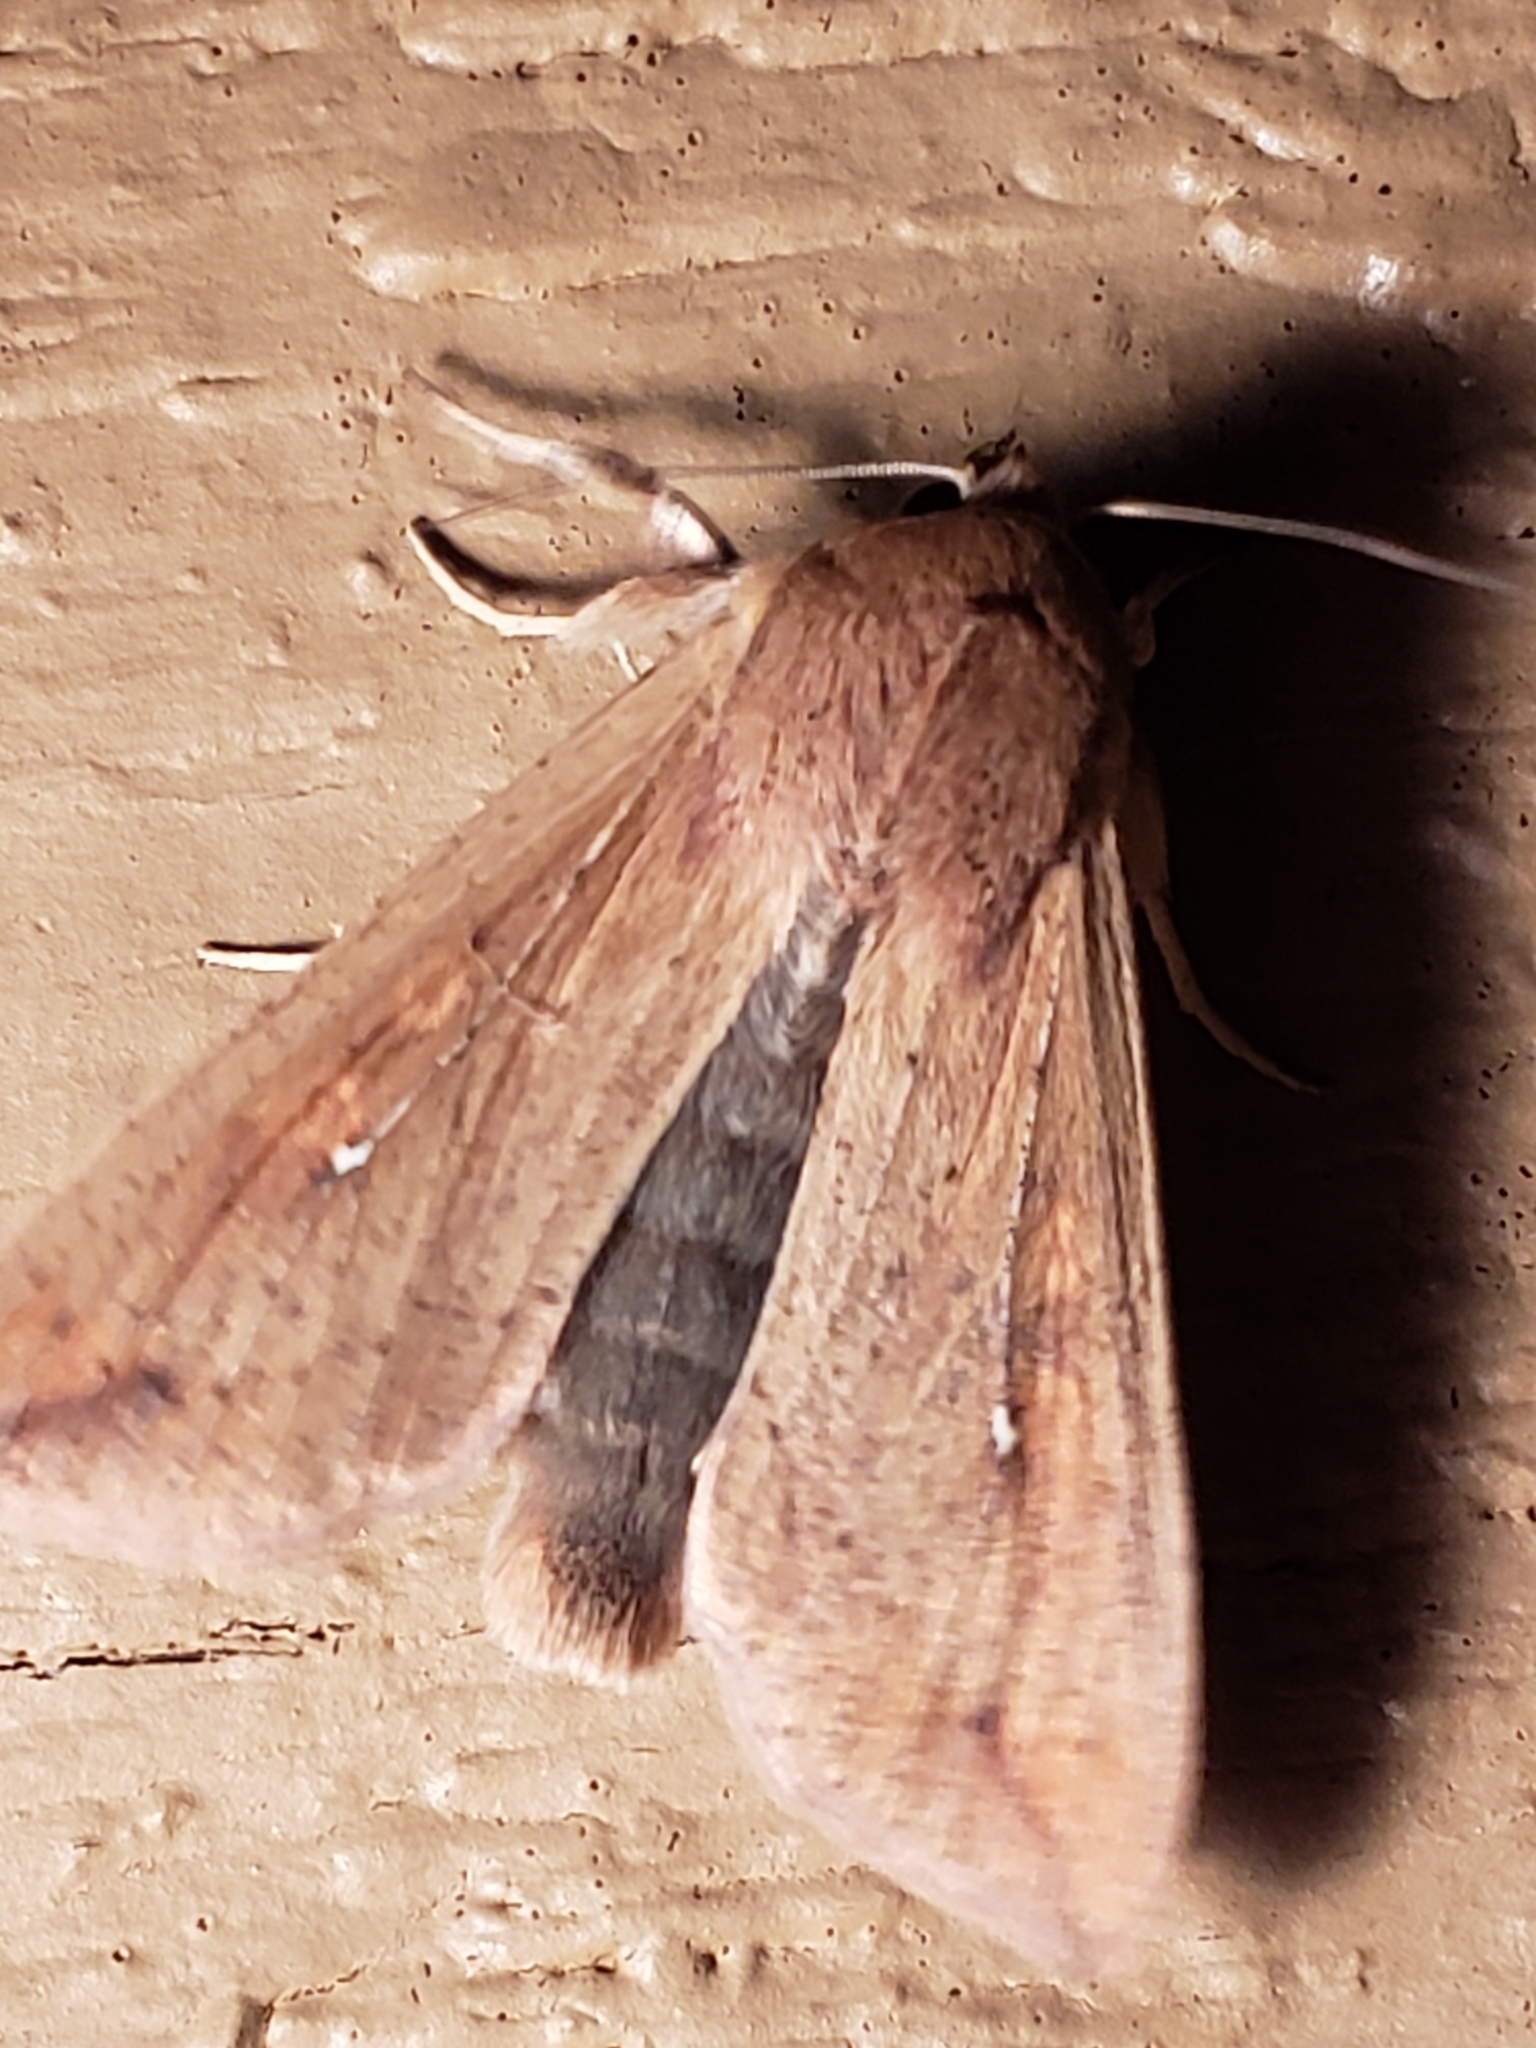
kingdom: Animalia
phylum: Arthropoda
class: Insecta
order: Lepidoptera
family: Noctuidae
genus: Mythimna
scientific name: Mythimna unipuncta
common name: White-speck
